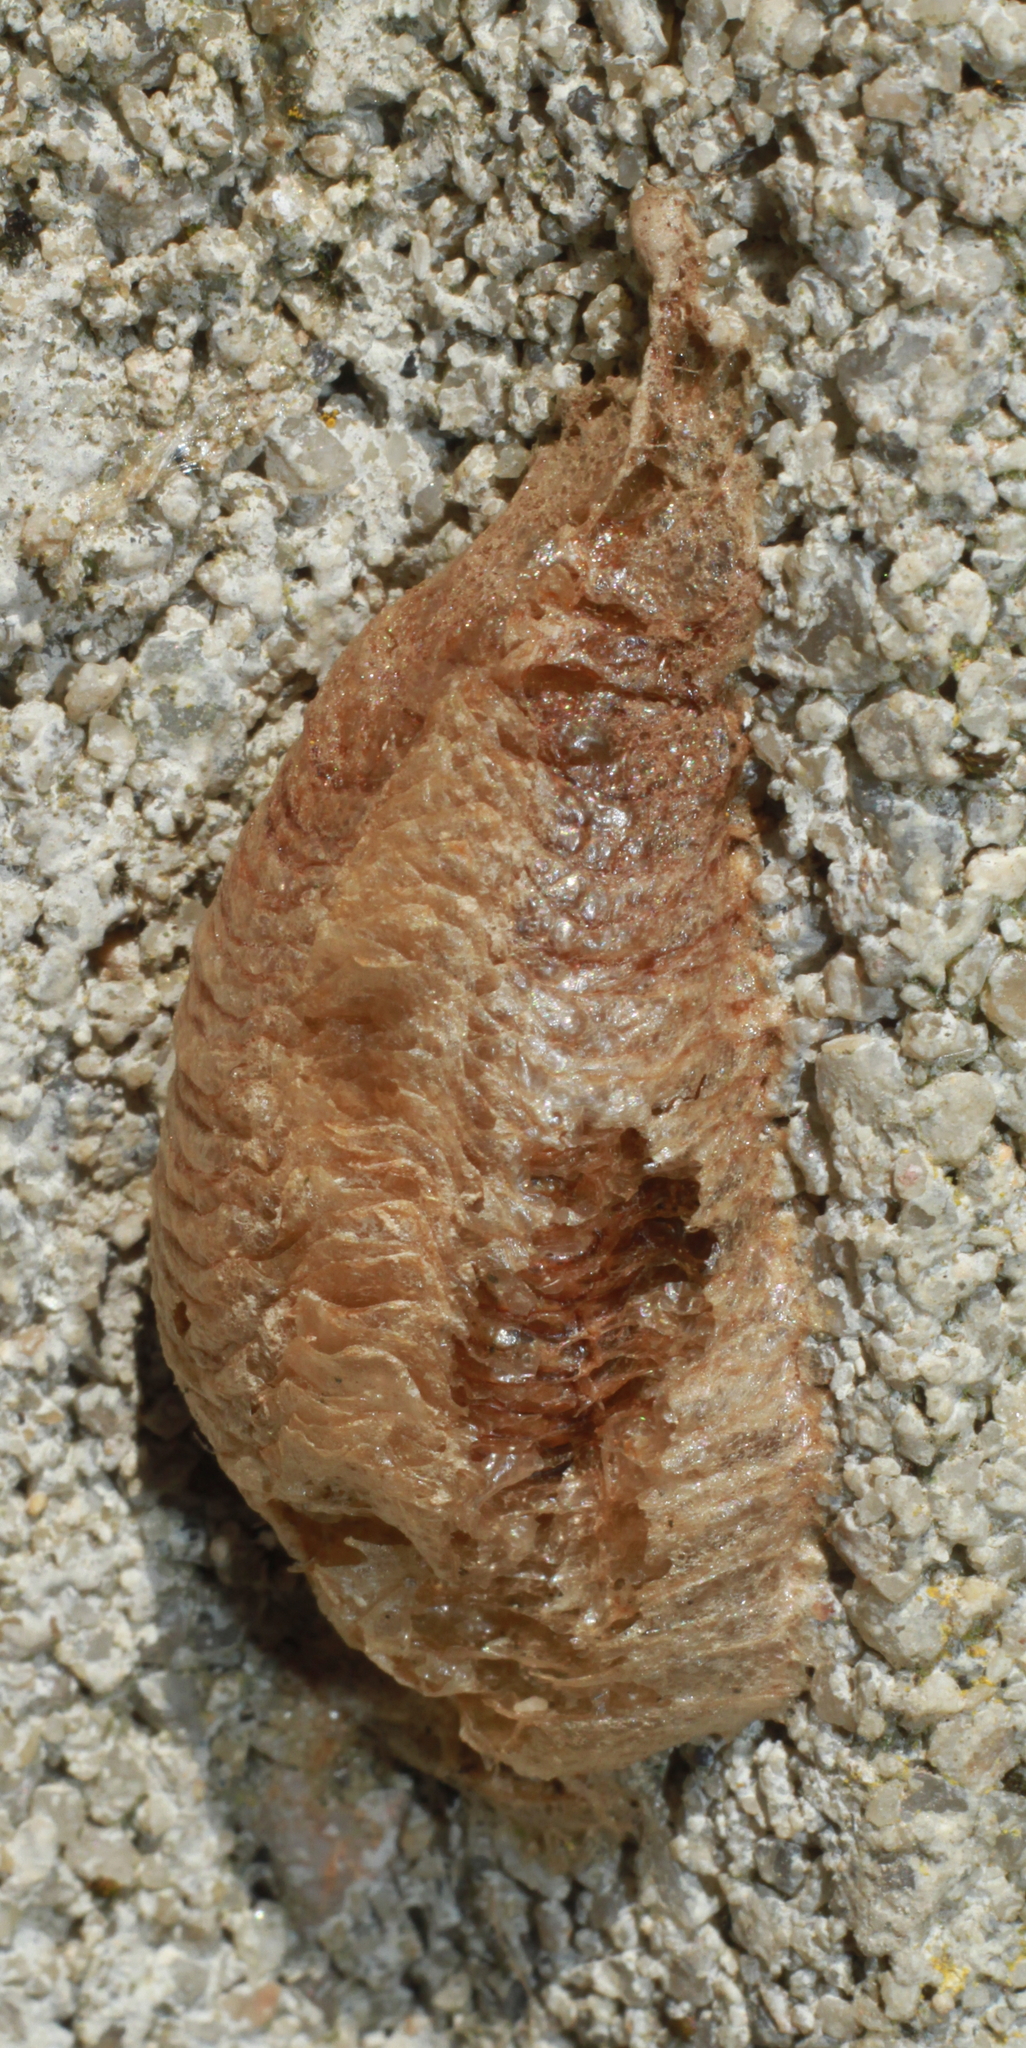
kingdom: Animalia
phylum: Arthropoda
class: Insecta
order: Mantodea
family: Mantidae
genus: Mantis
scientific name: Mantis religiosa
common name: Praying mantis
